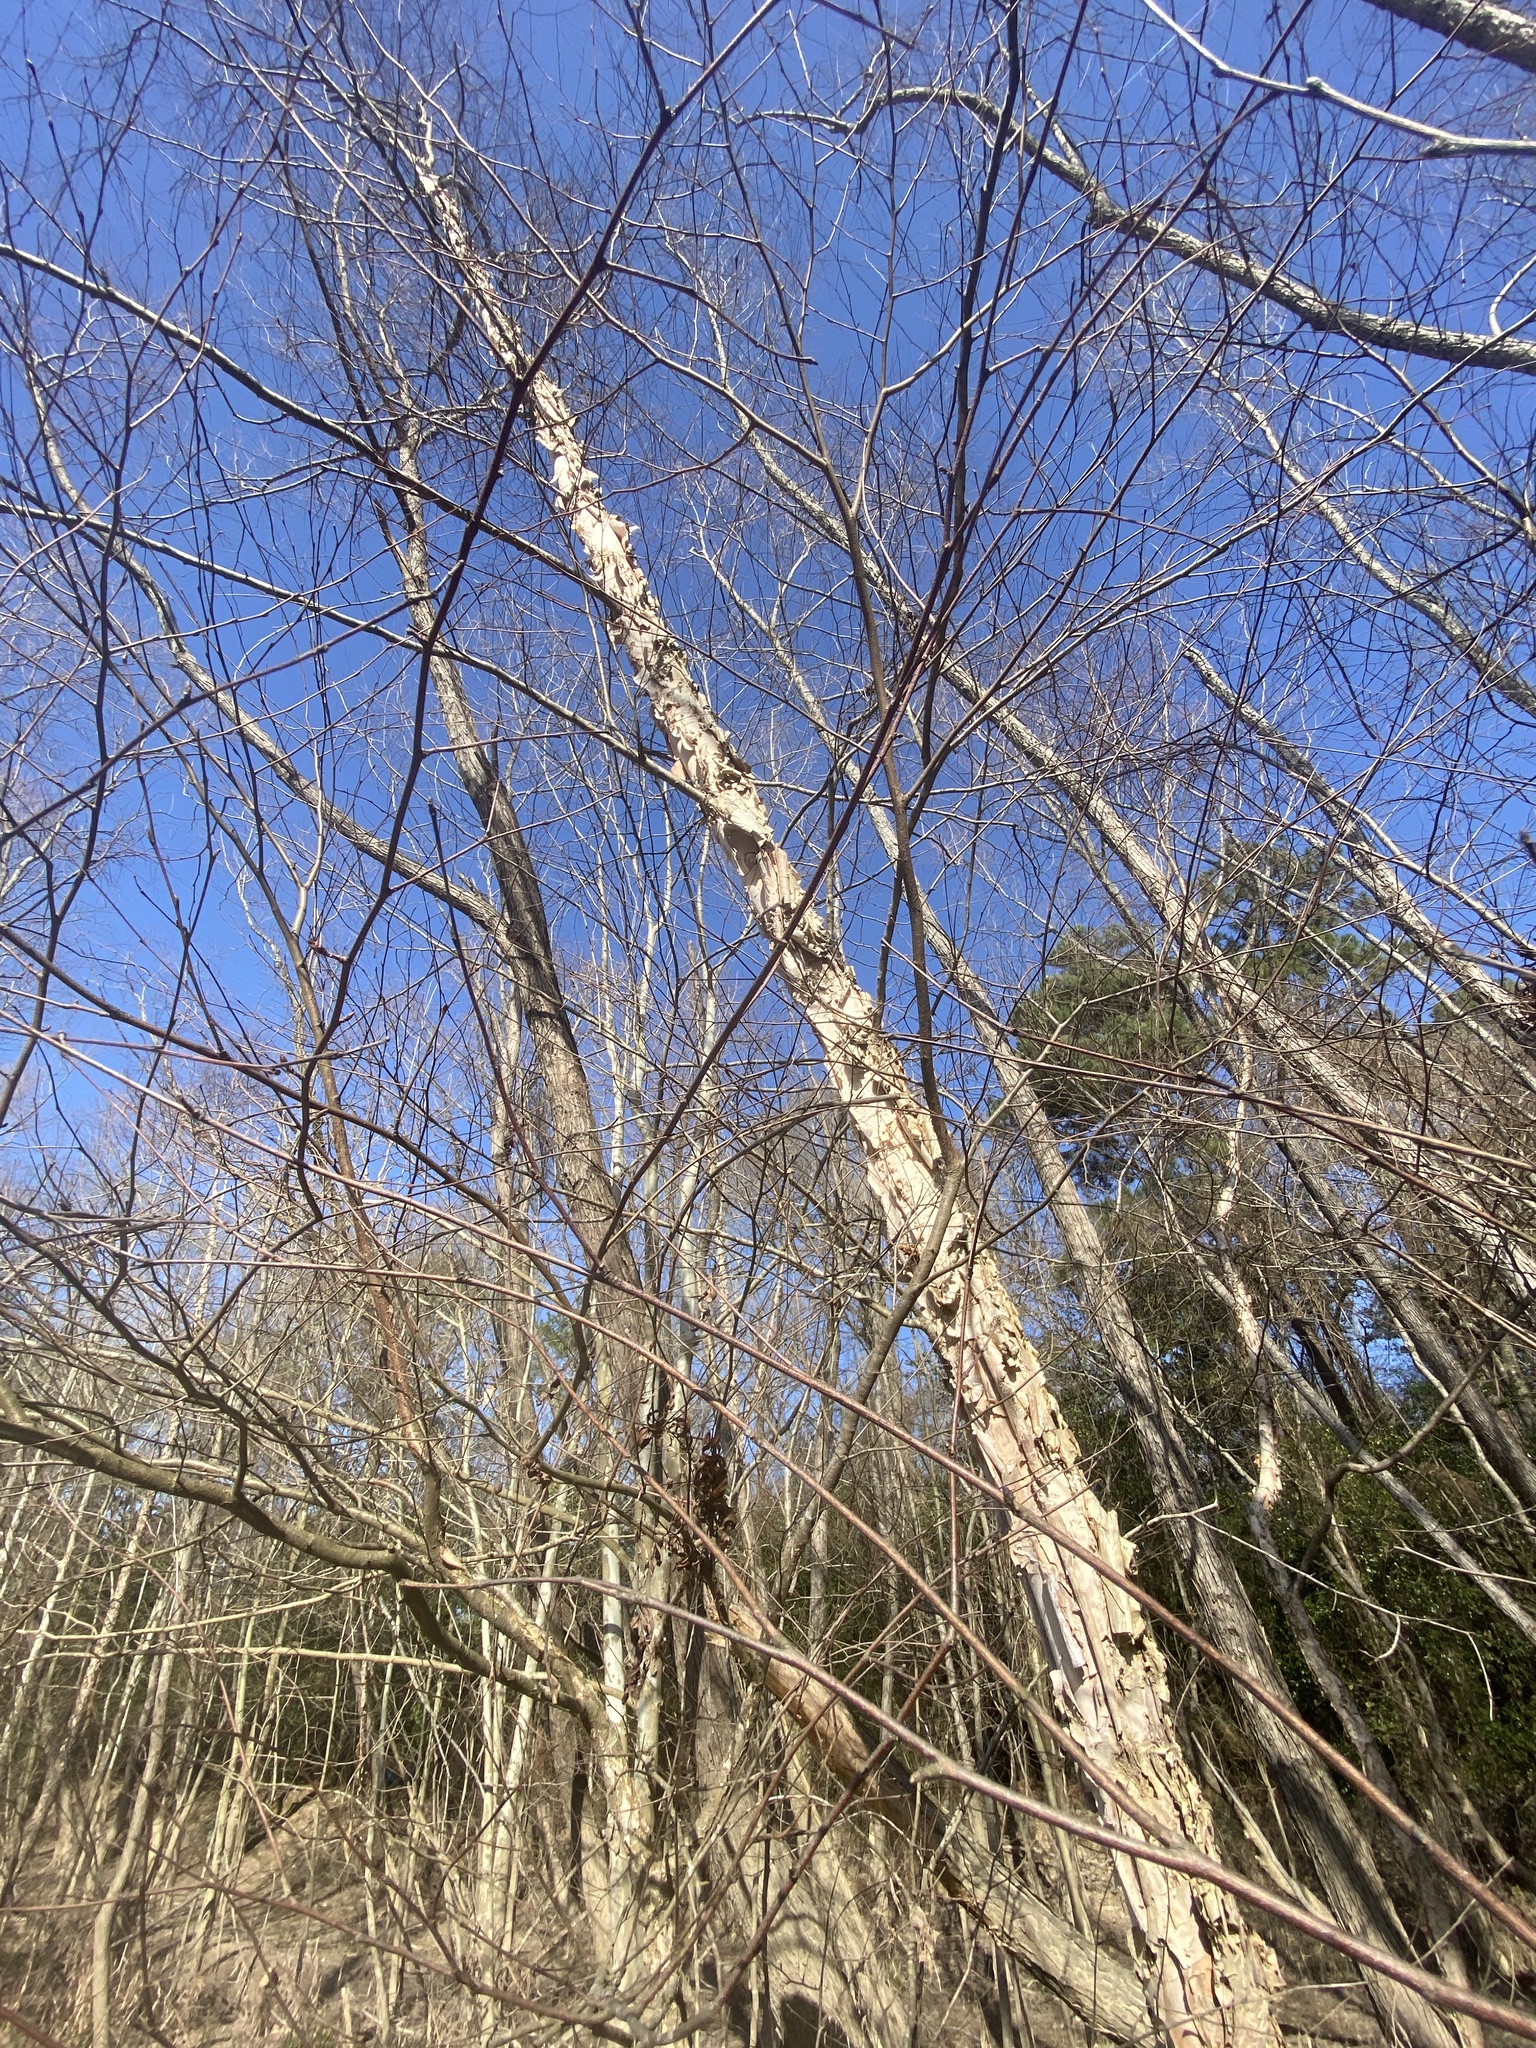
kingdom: Plantae
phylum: Tracheophyta
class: Magnoliopsida
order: Fagales
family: Betulaceae
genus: Betula
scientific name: Betula nigra
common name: Black birch
